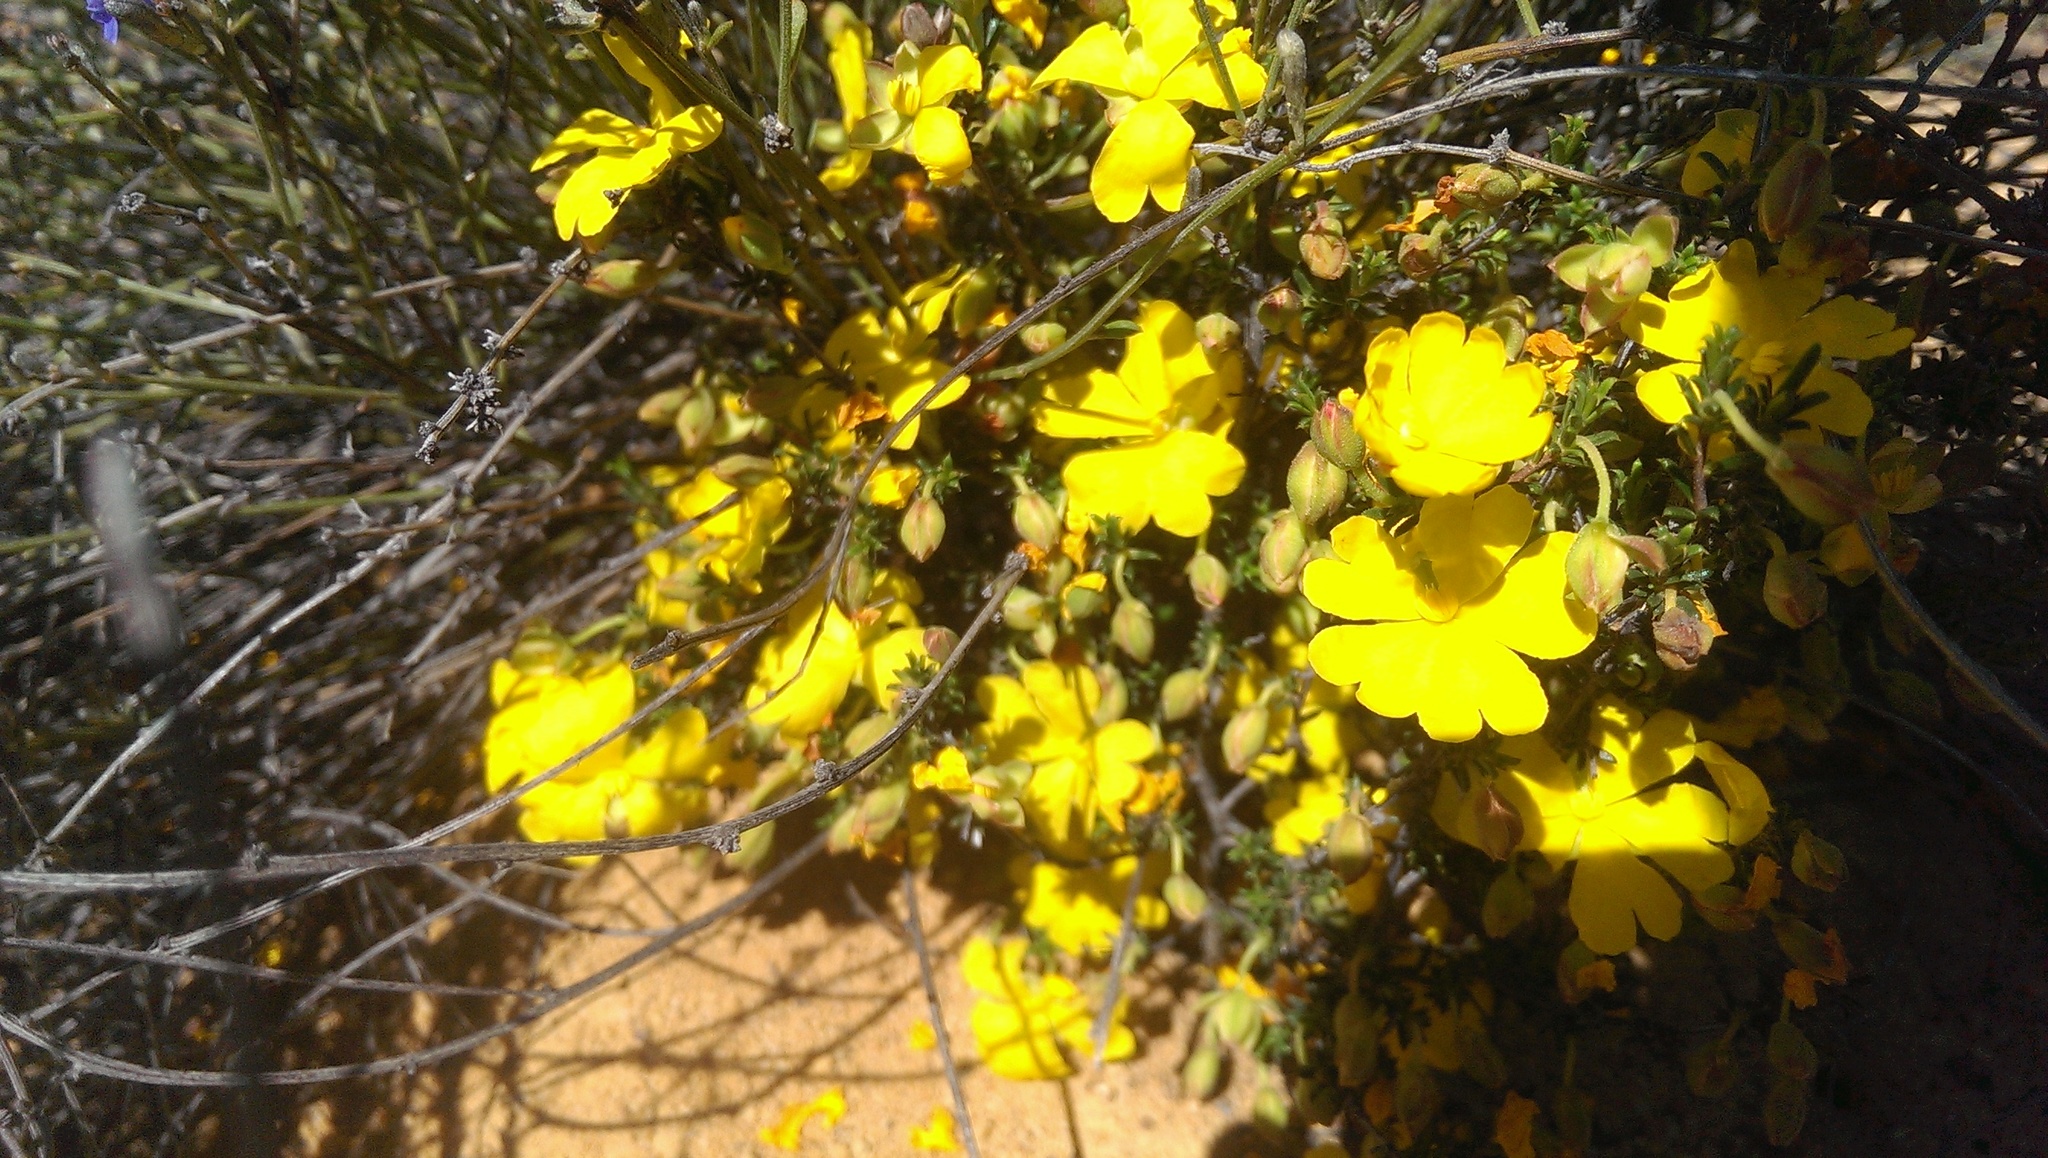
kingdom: Plantae
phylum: Tracheophyta
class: Magnoliopsida
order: Dilleniales
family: Dilleniaceae
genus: Hibbertia
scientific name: Hibbertia eatoniae
